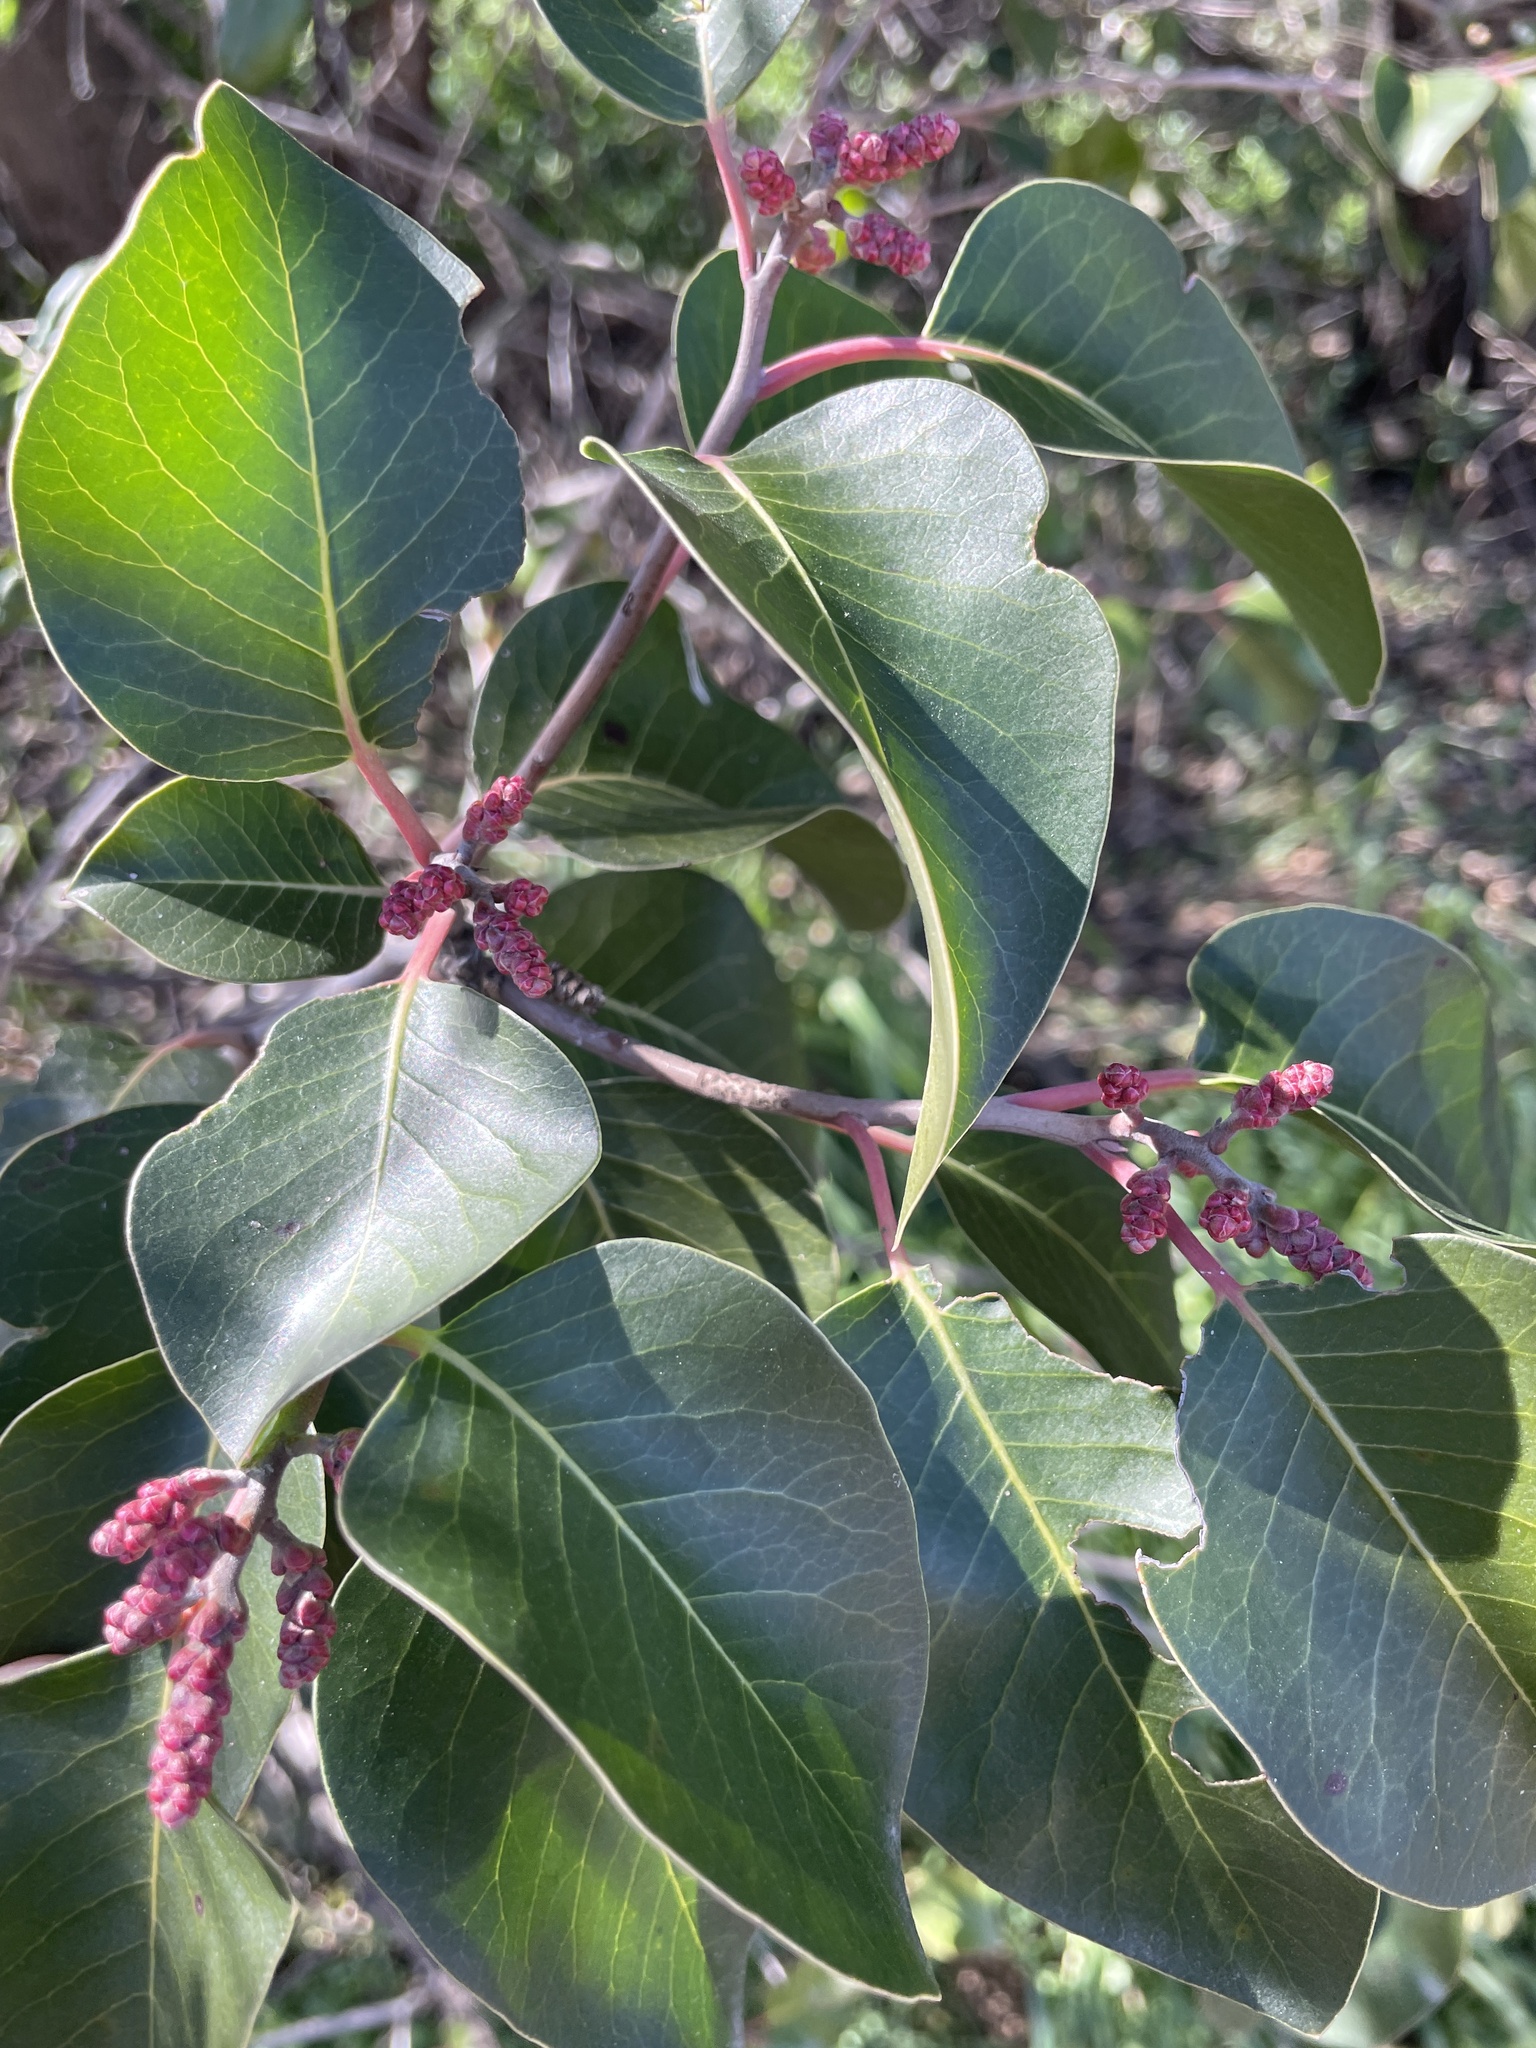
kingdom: Plantae
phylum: Tracheophyta
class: Magnoliopsida
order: Sapindales
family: Anacardiaceae
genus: Rhus
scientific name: Rhus ovata
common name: Sugar sumac
